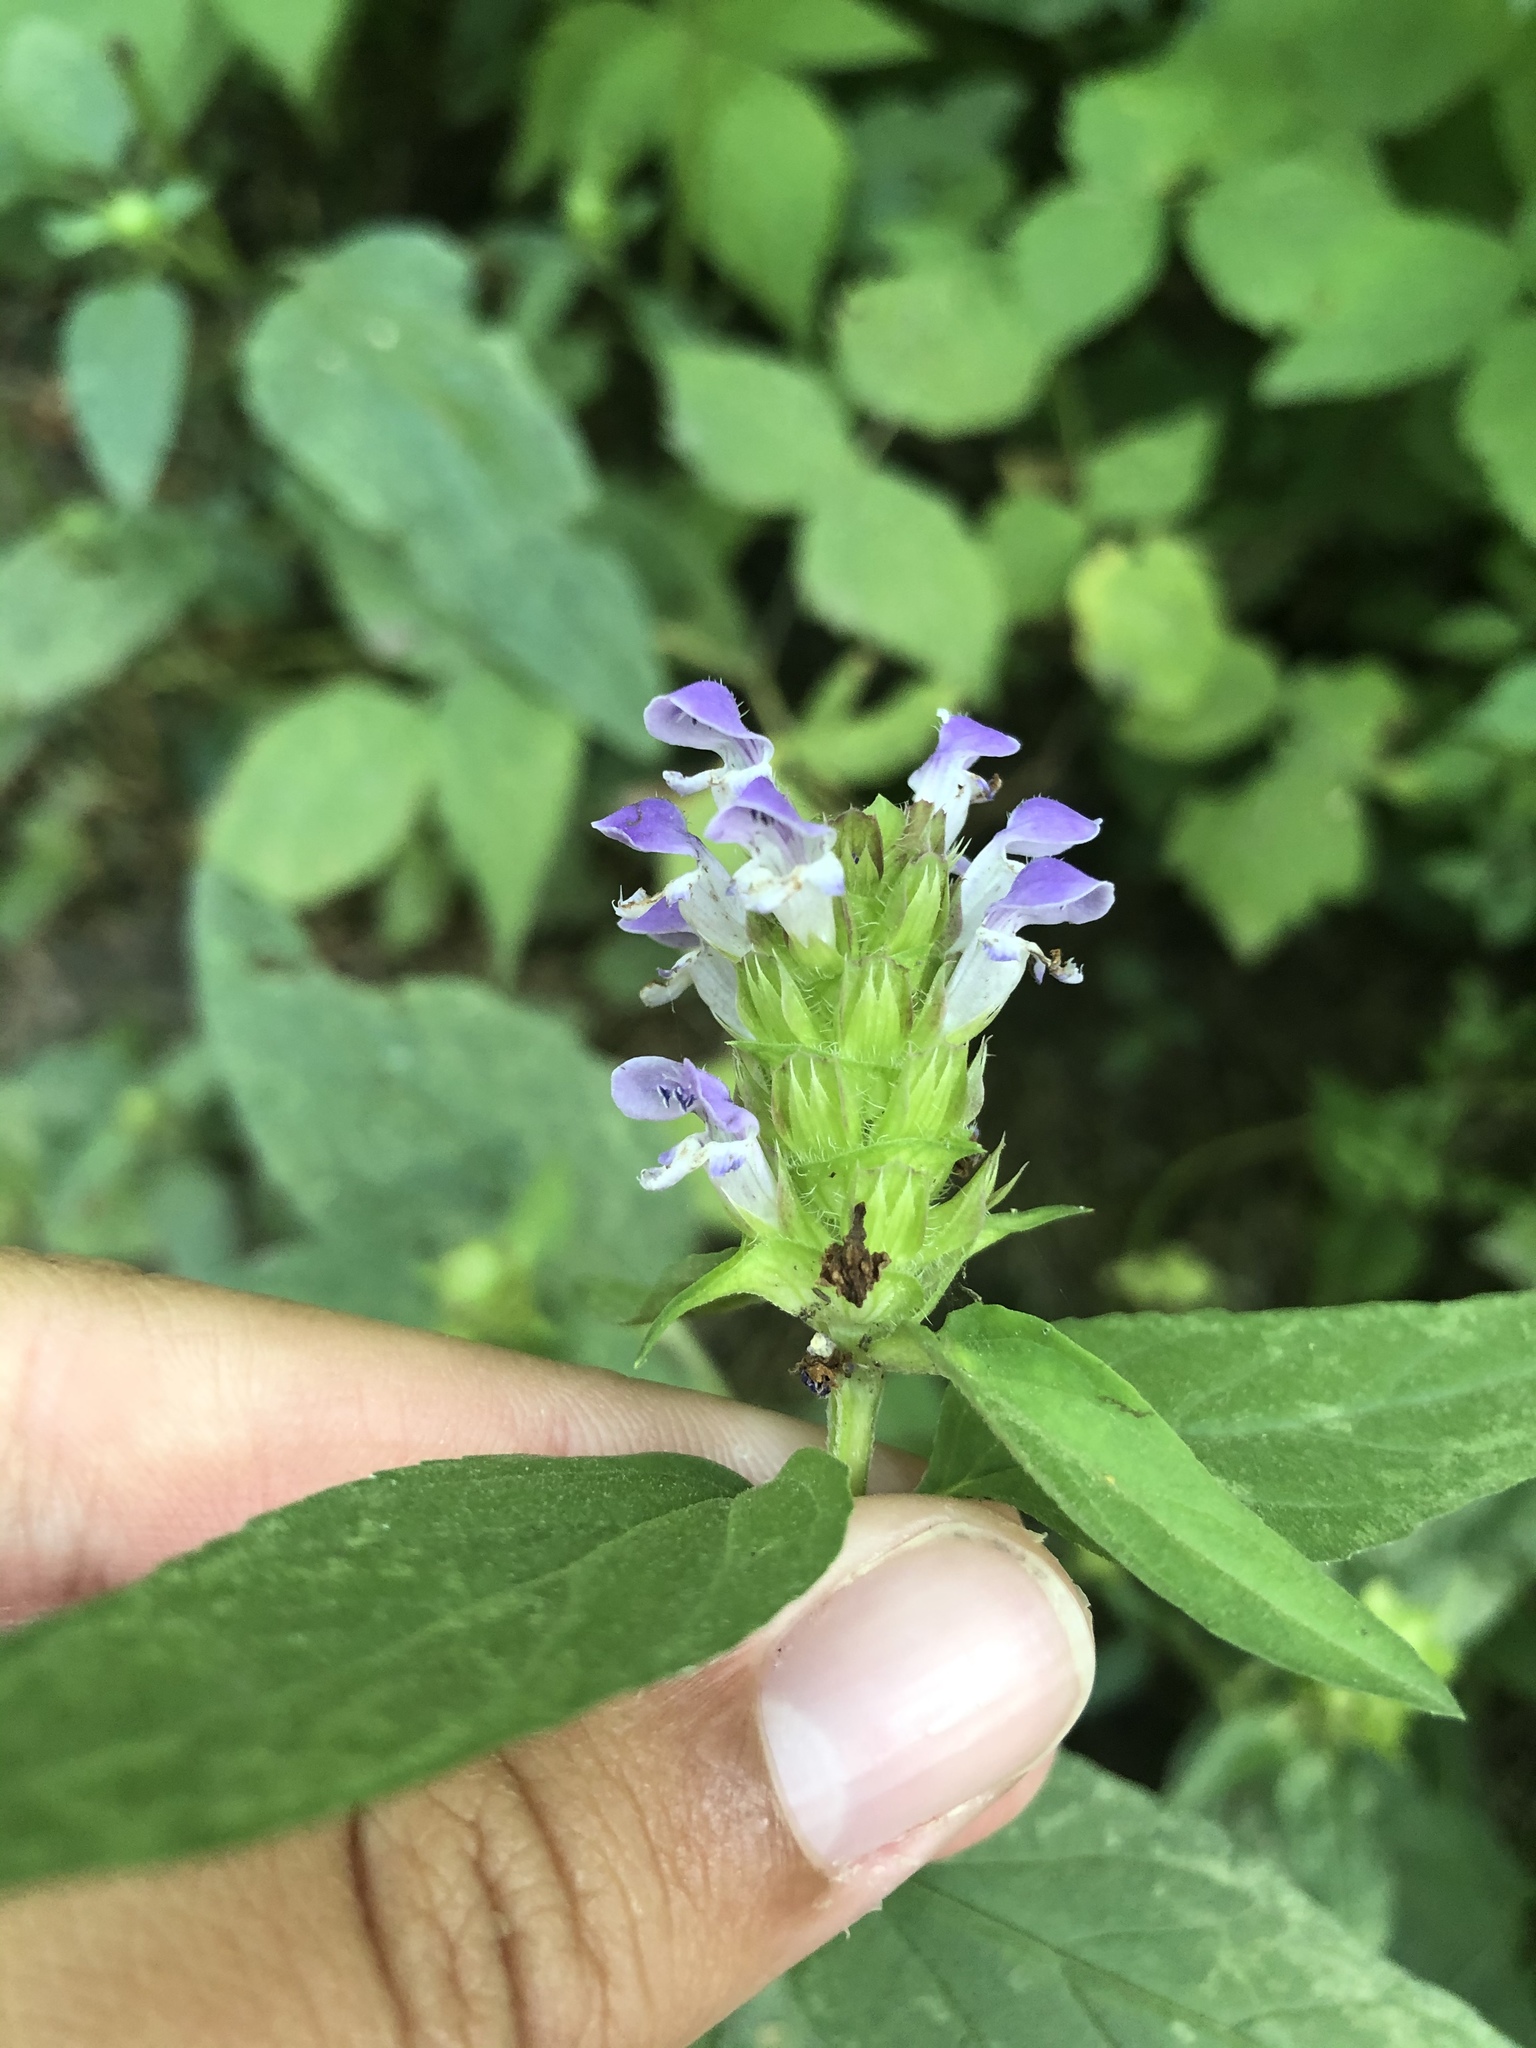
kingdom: Plantae
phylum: Tracheophyta
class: Magnoliopsida
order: Lamiales
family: Lamiaceae
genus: Prunella
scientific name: Prunella vulgaris
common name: Heal-all
